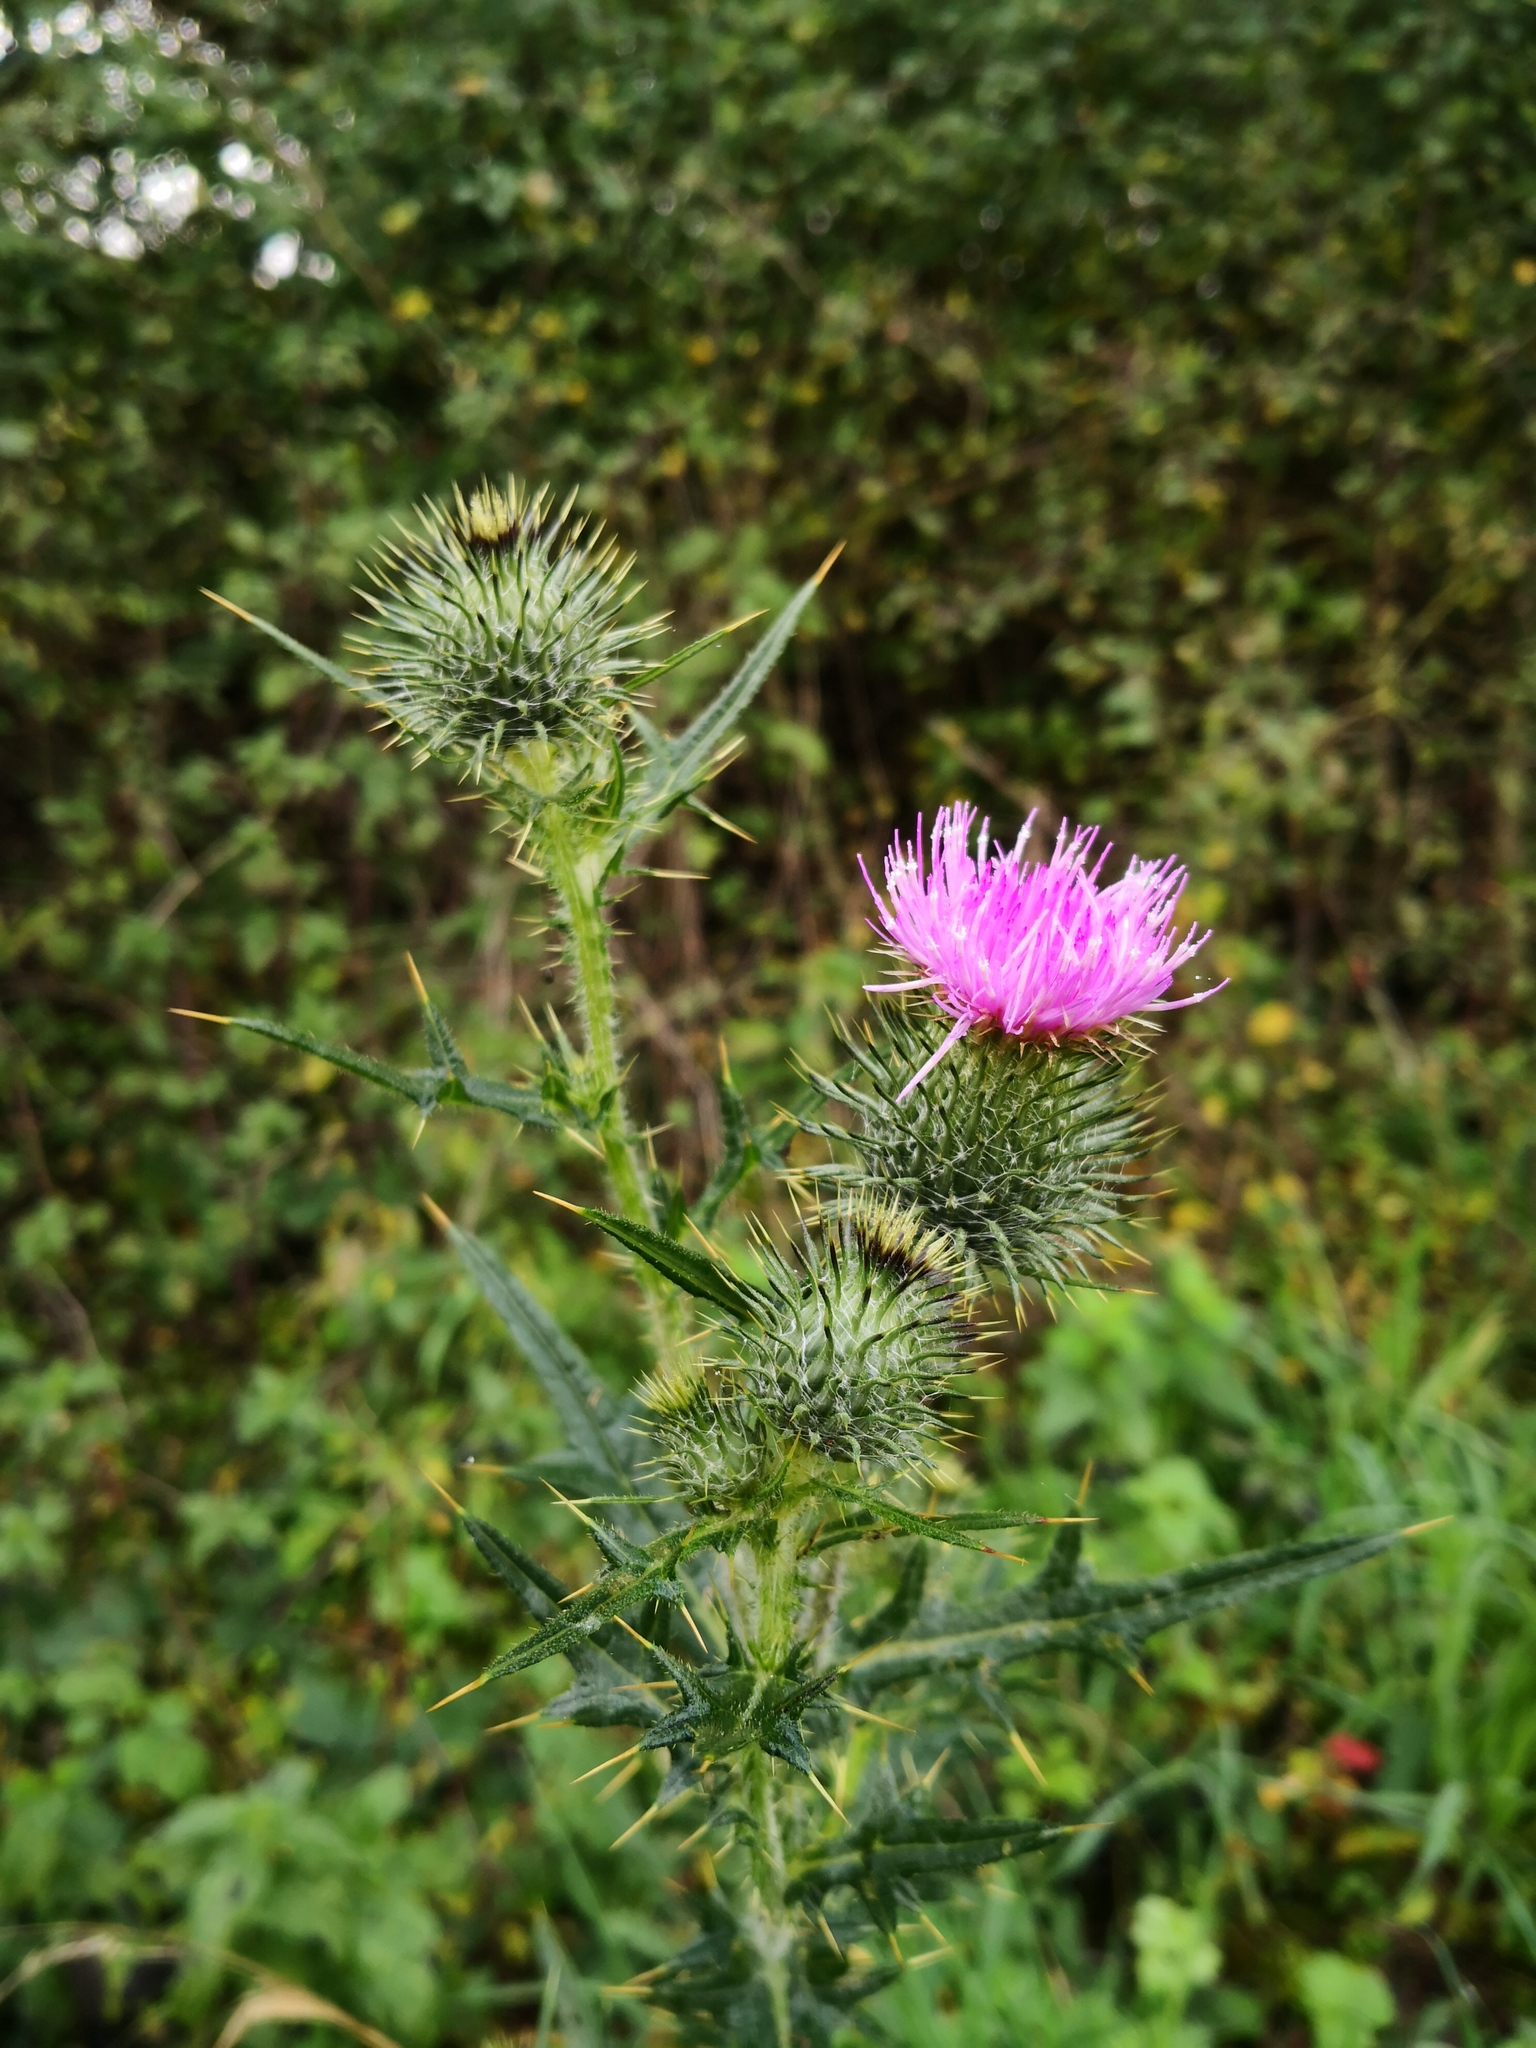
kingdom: Plantae
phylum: Tracheophyta
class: Magnoliopsida
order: Asterales
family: Asteraceae
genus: Cirsium
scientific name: Cirsium vulgare
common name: Bull thistle
